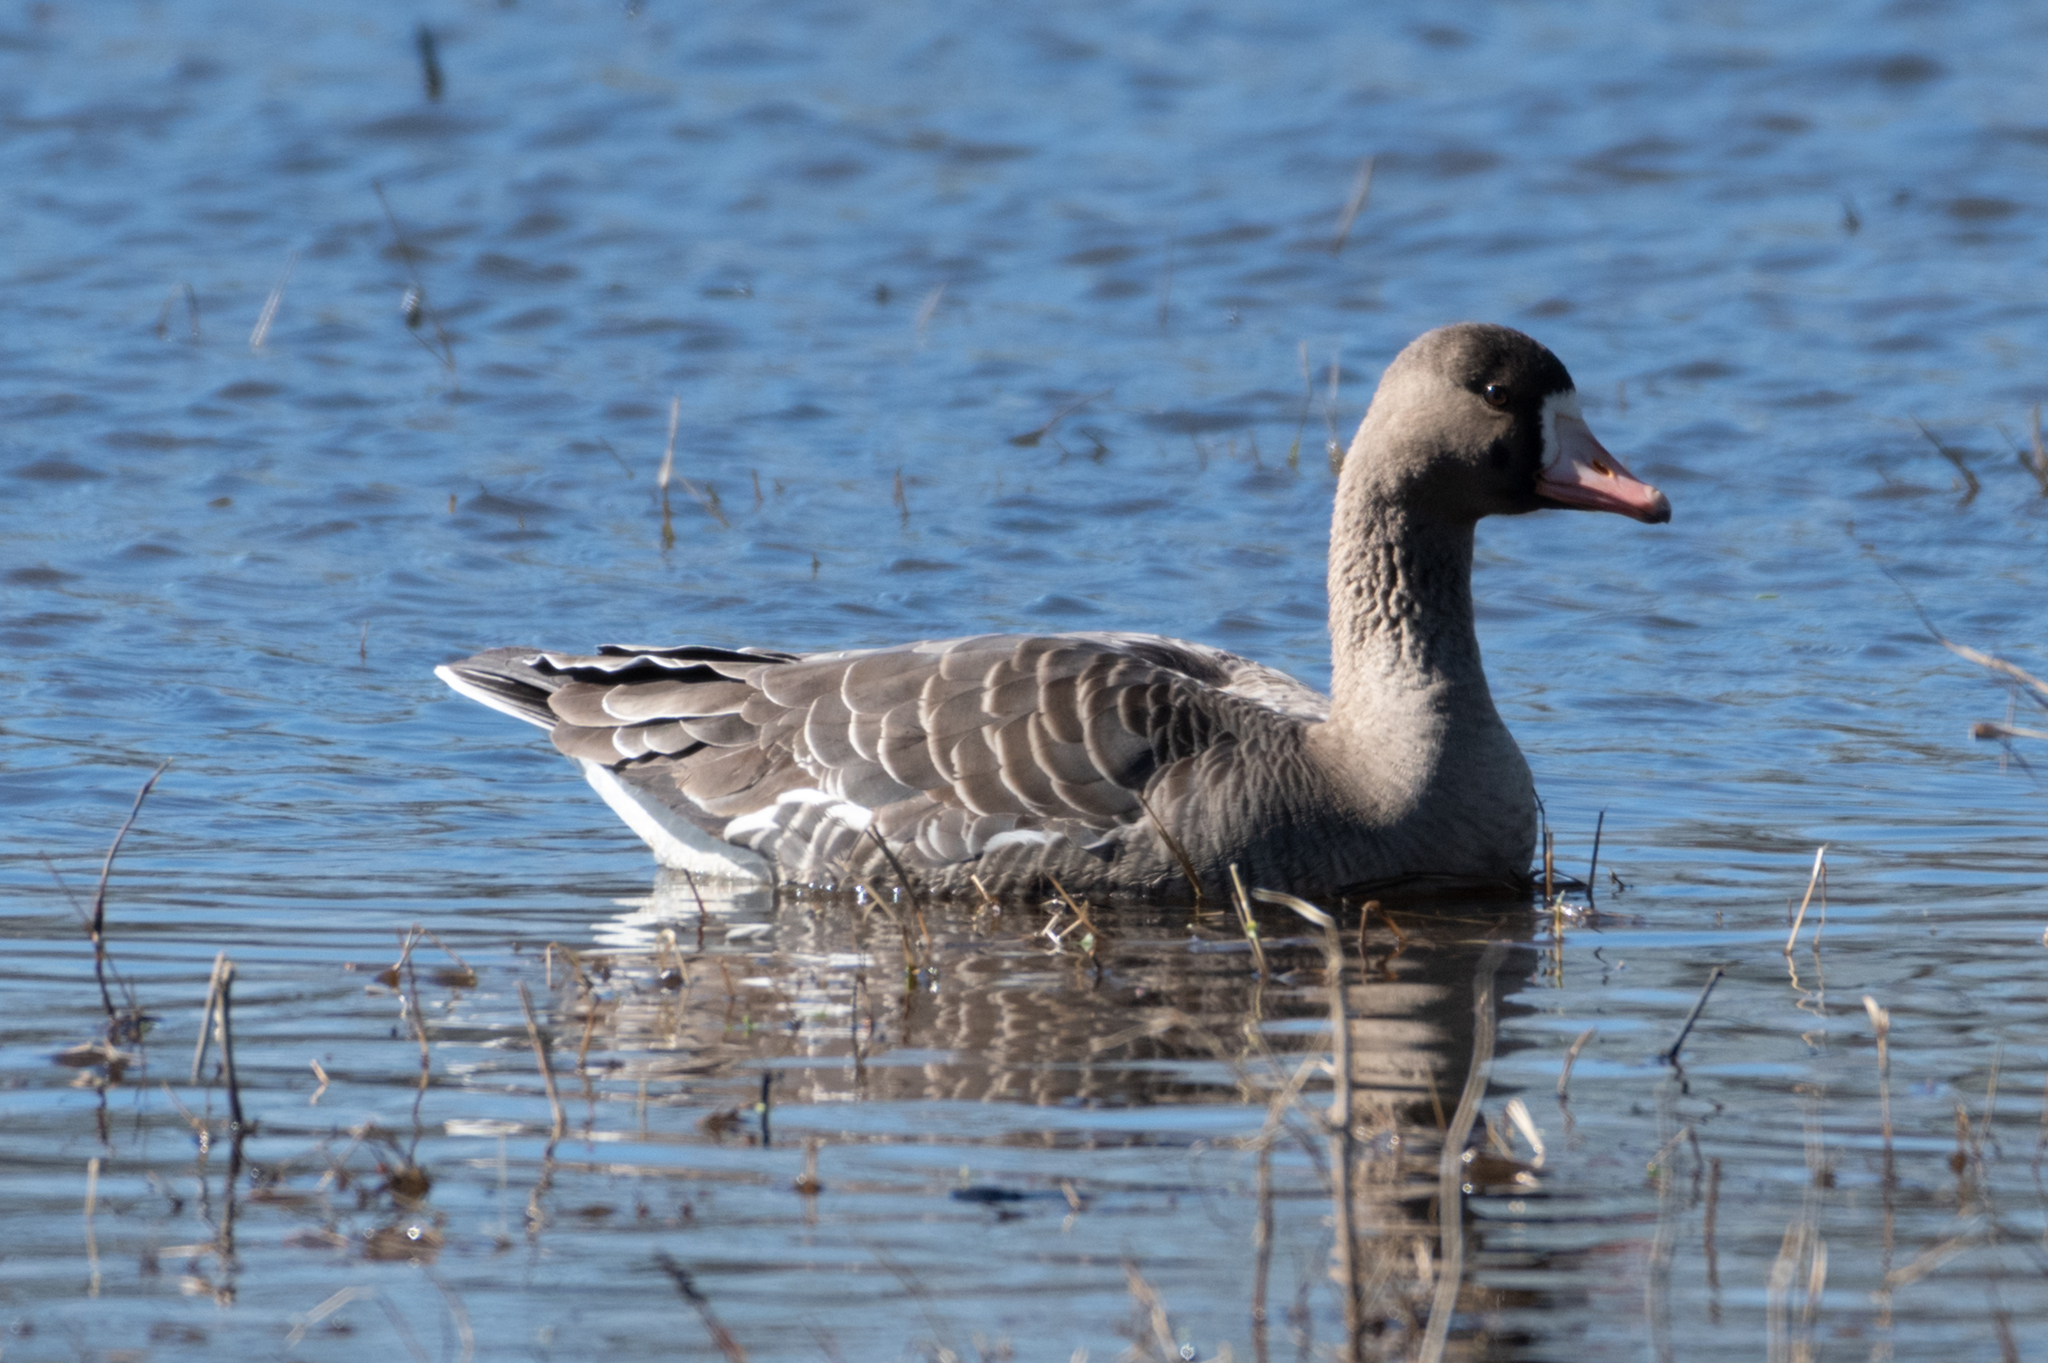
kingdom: Animalia
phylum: Chordata
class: Aves
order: Anseriformes
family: Anatidae
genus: Anser
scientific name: Anser albifrons
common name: Greater white-fronted goose
